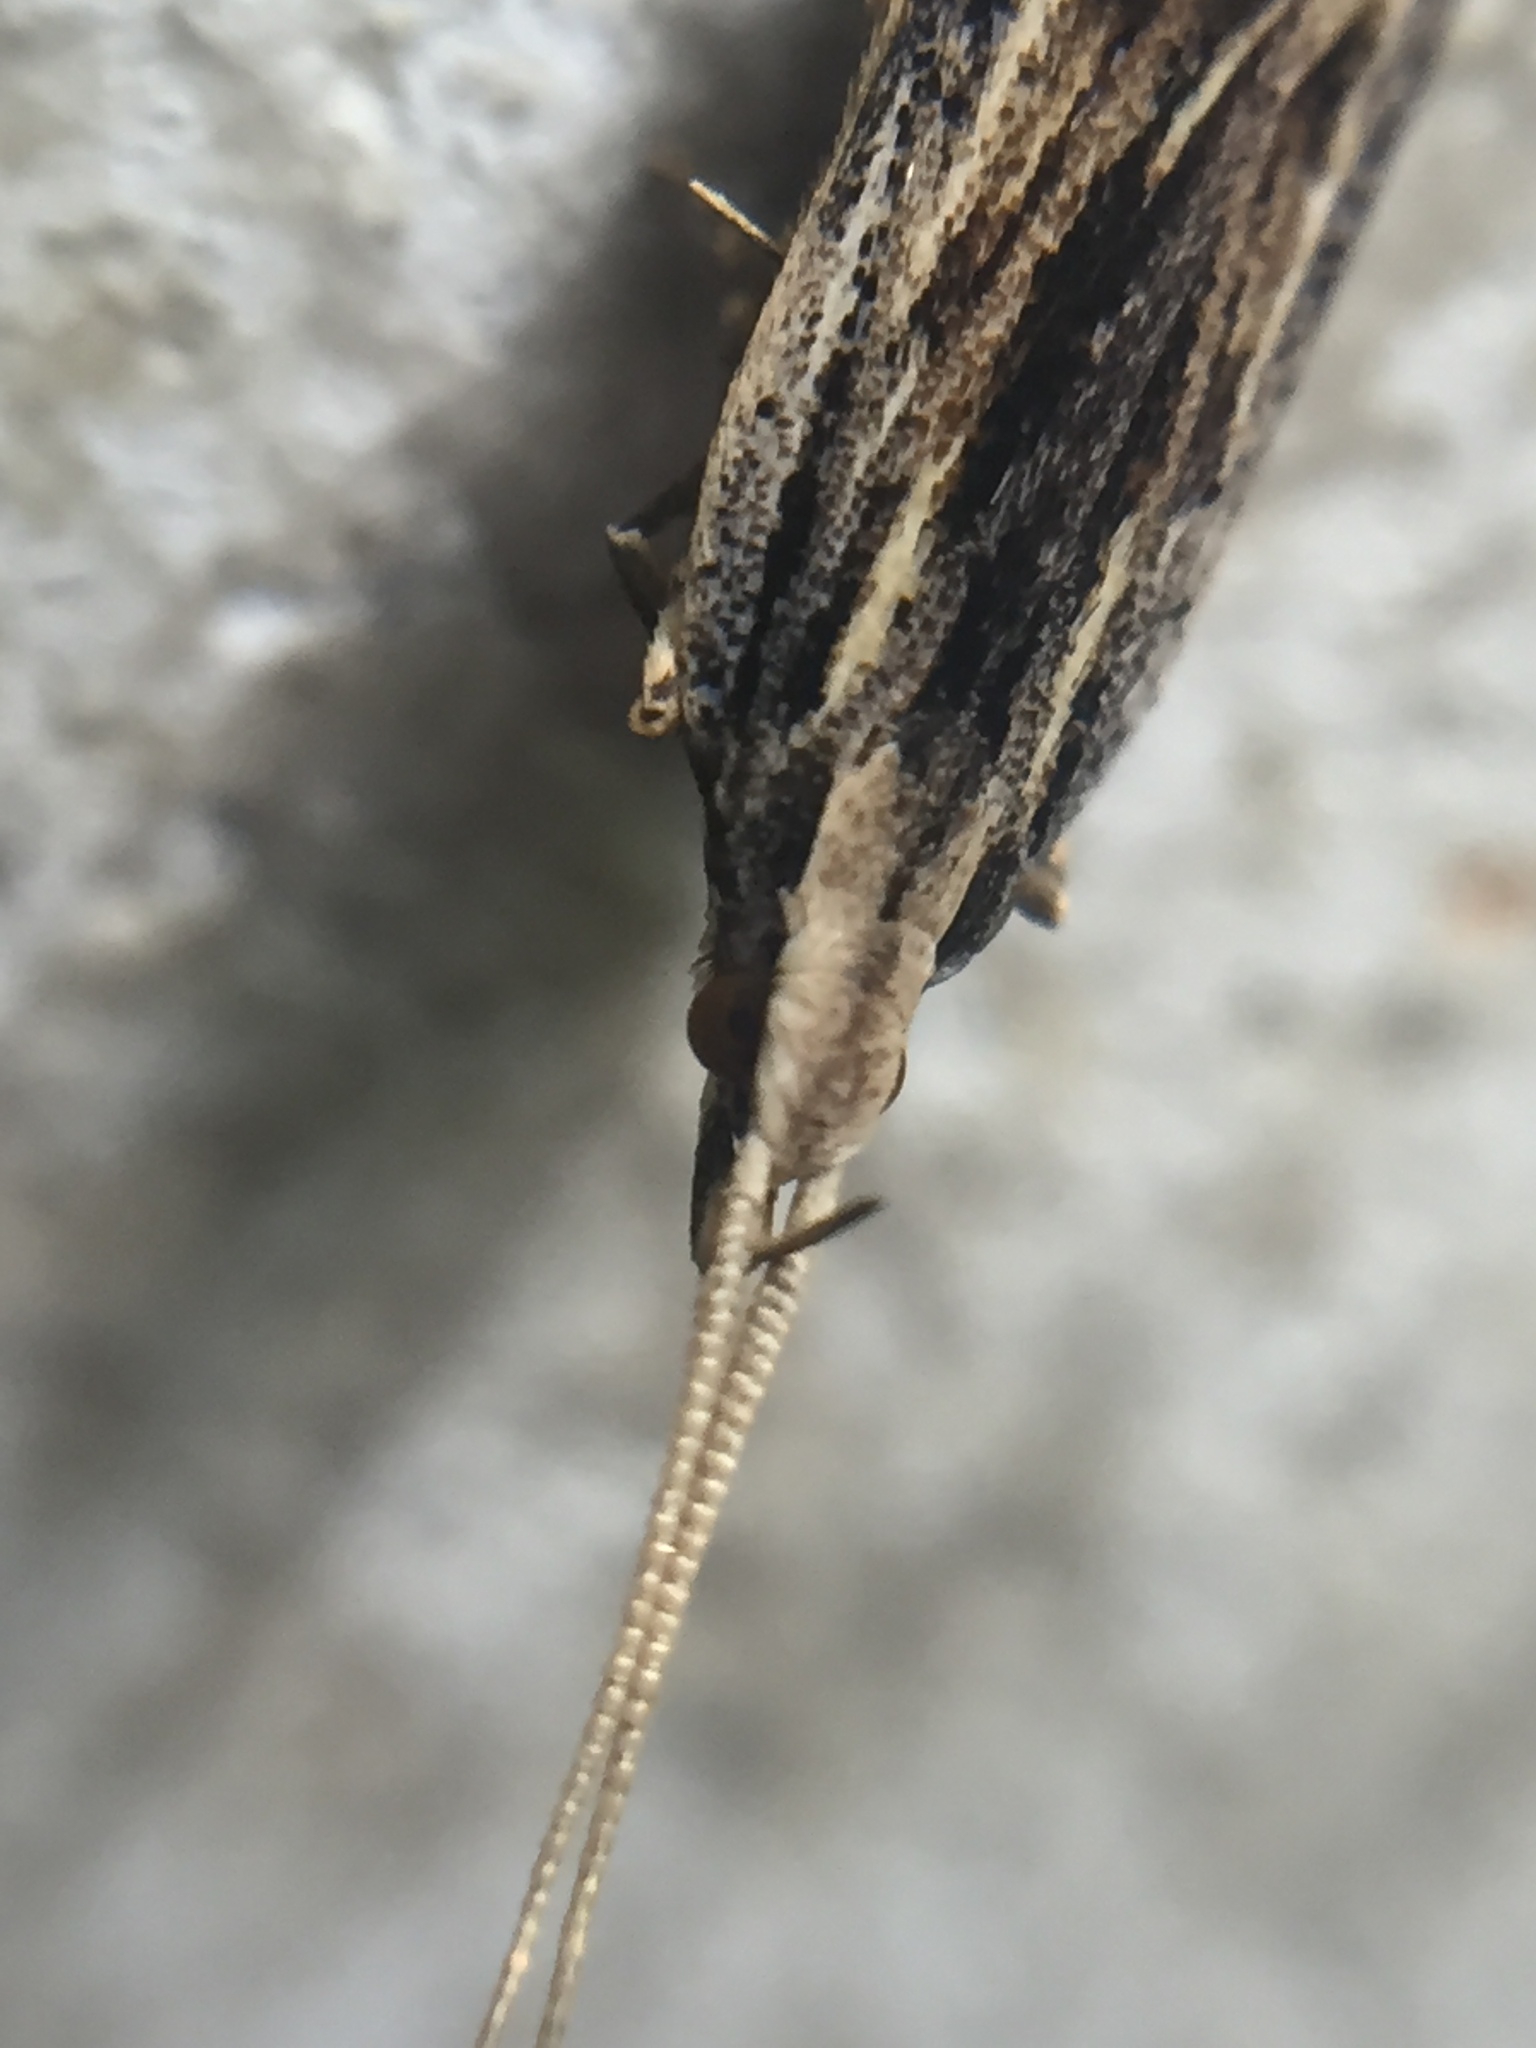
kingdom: Animalia
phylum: Arthropoda
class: Insecta
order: Lepidoptera
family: Lecithoceridae
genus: Sarisophora
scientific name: Sarisophora leucoscia
